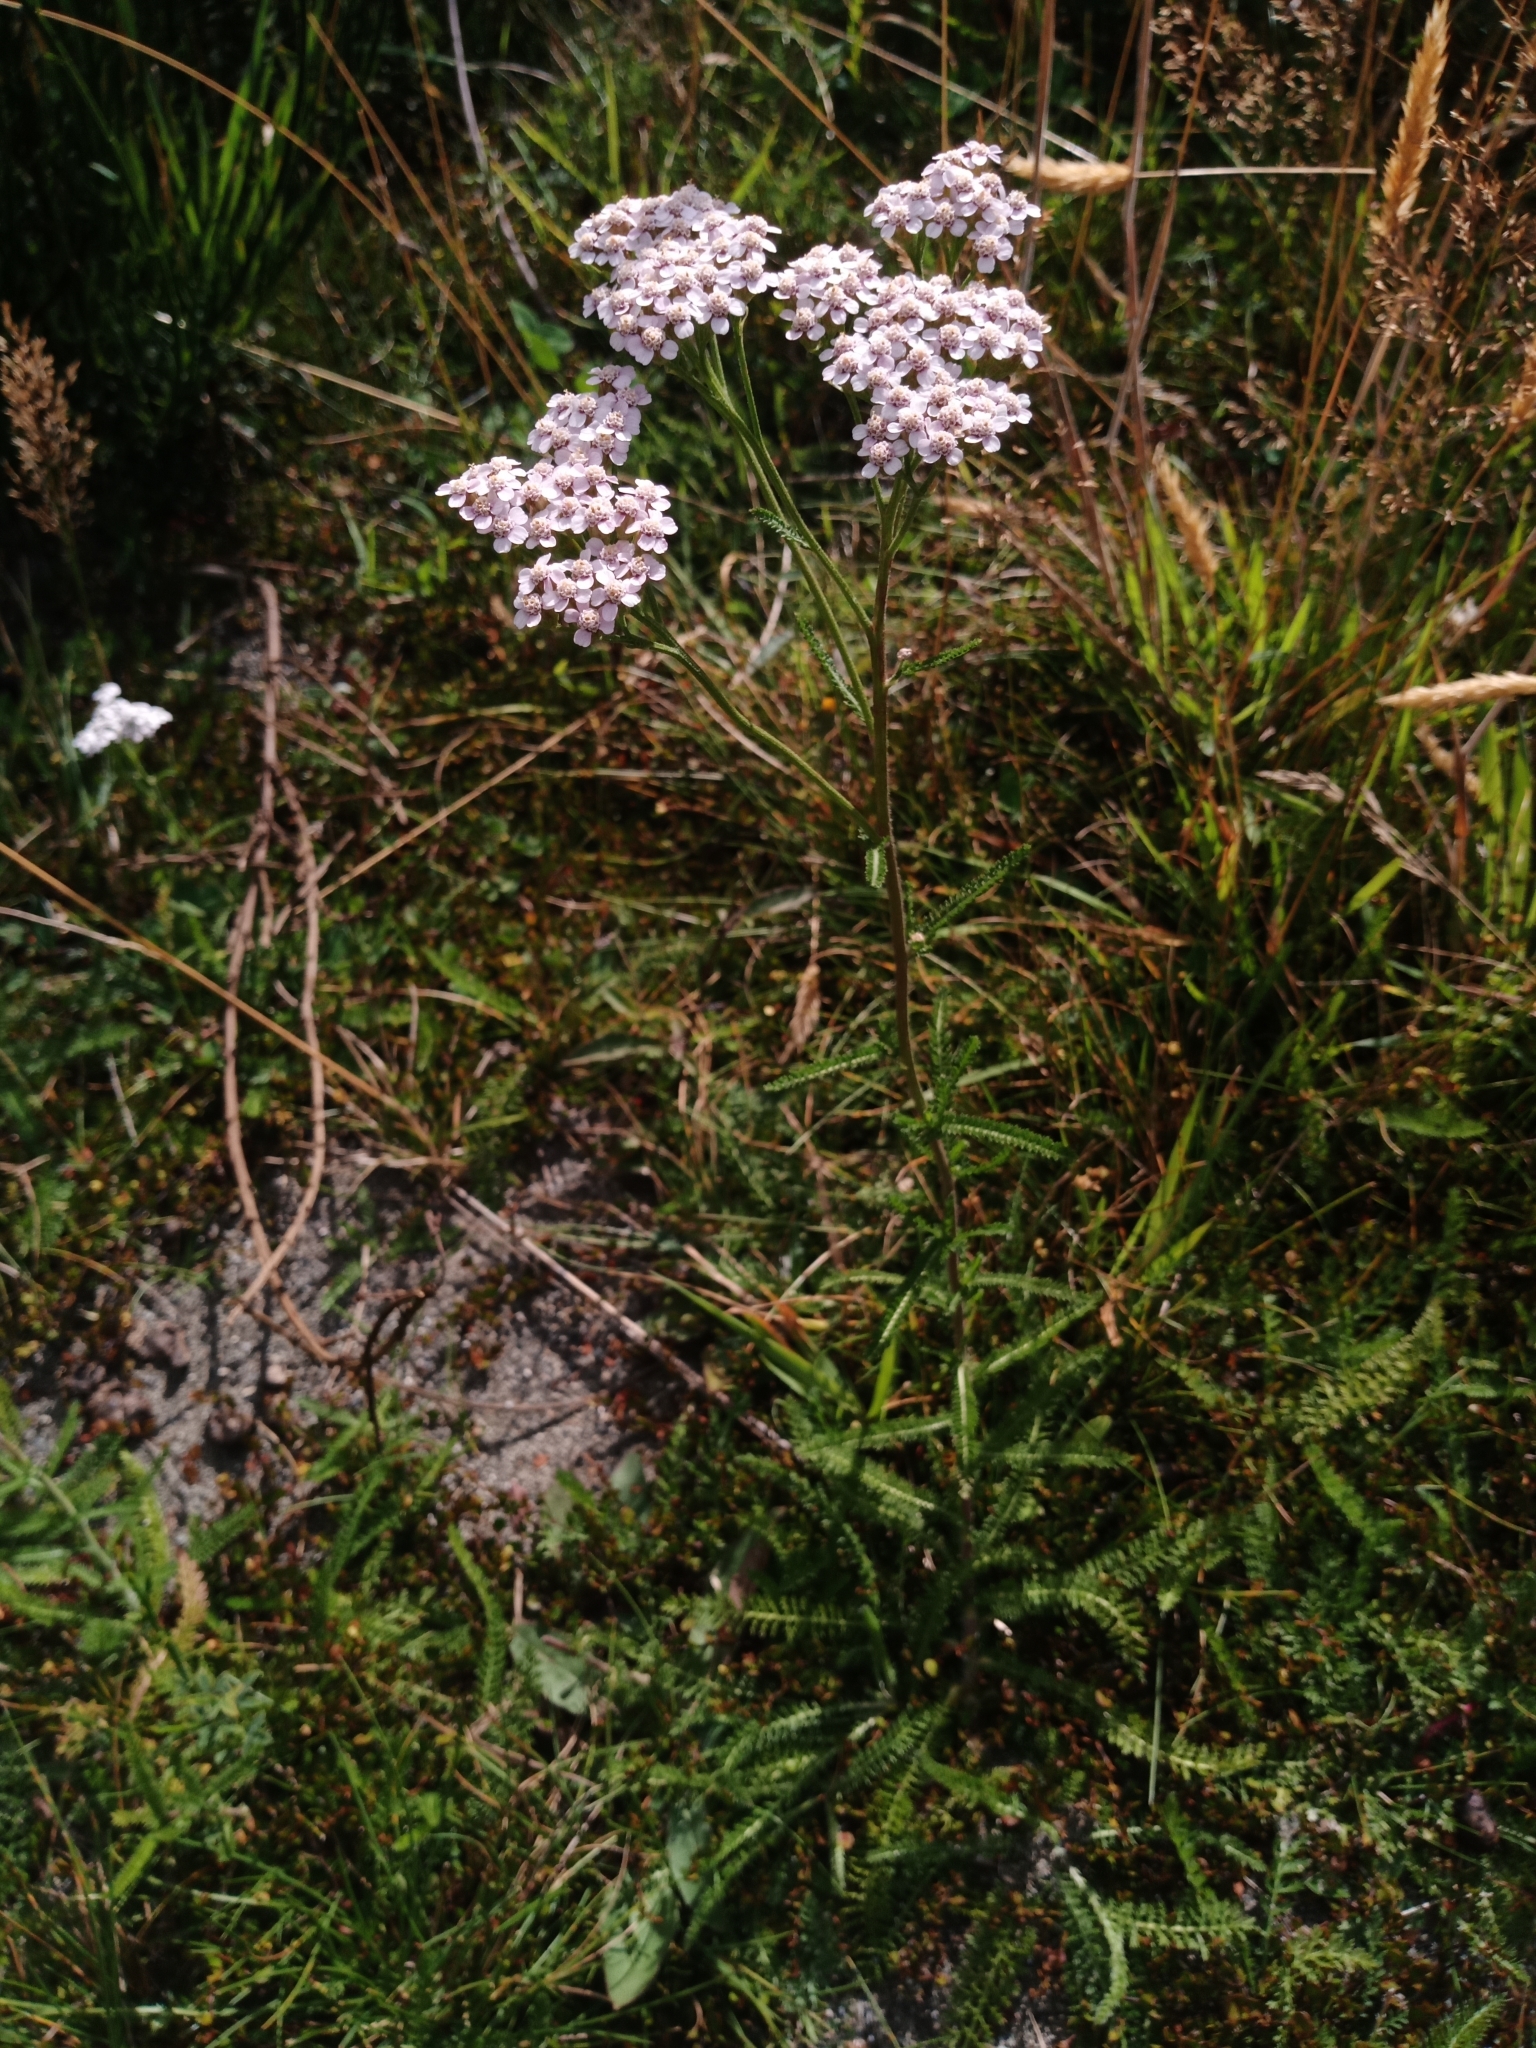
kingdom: Plantae
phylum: Tracheophyta
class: Magnoliopsida
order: Asterales
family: Asteraceae
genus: Achillea
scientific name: Achillea millefolium
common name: Yarrow
